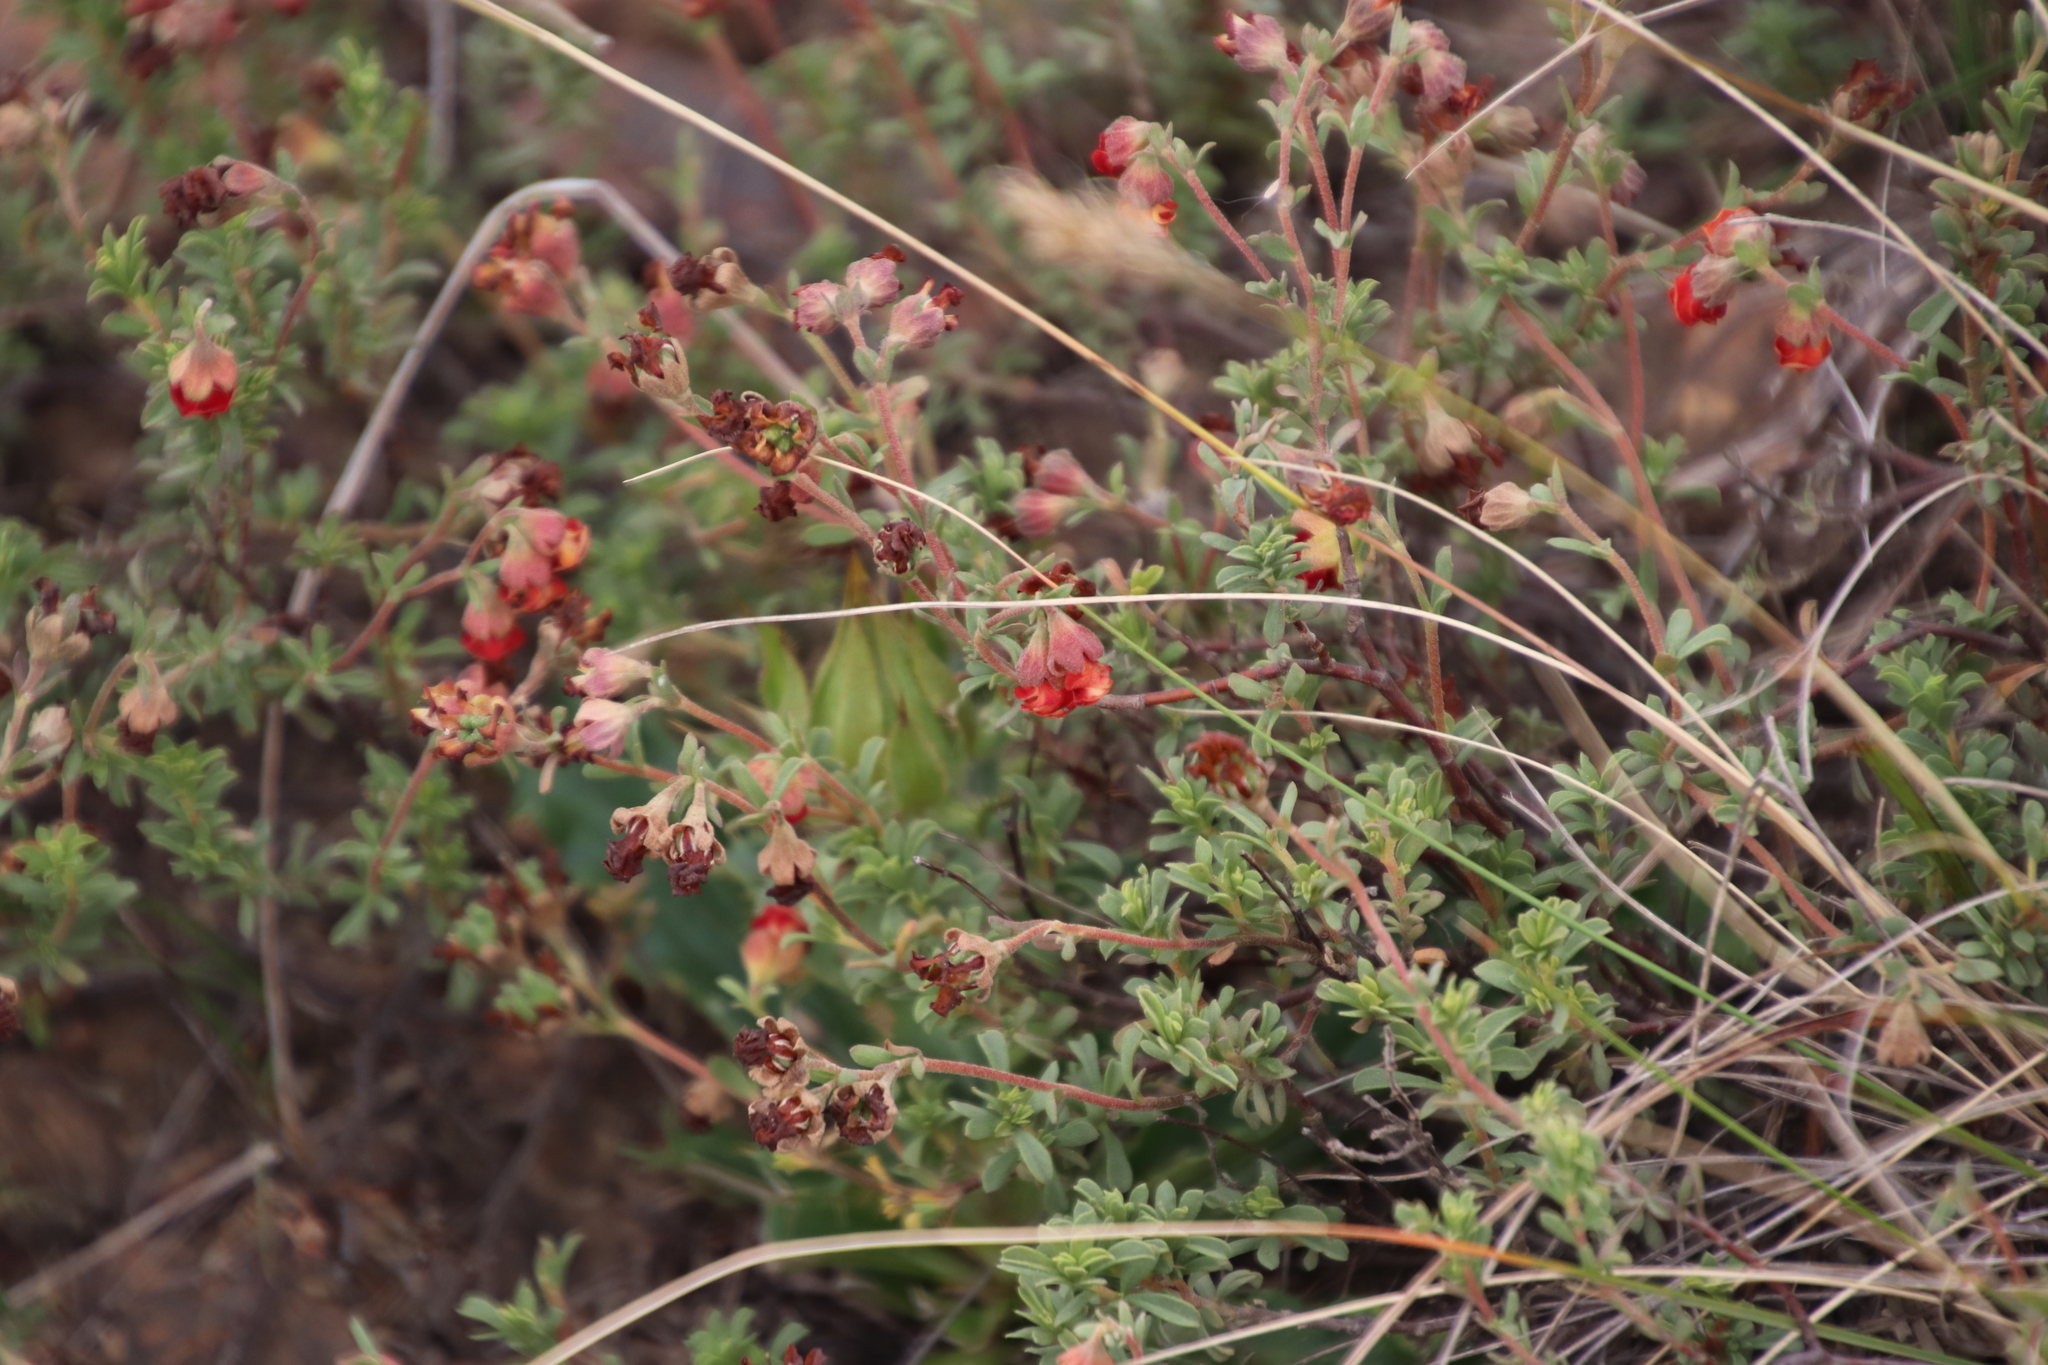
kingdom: Plantae
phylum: Tracheophyta
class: Magnoliopsida
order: Malvales
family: Malvaceae
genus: Hermannia
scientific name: Hermannia diversistipula
